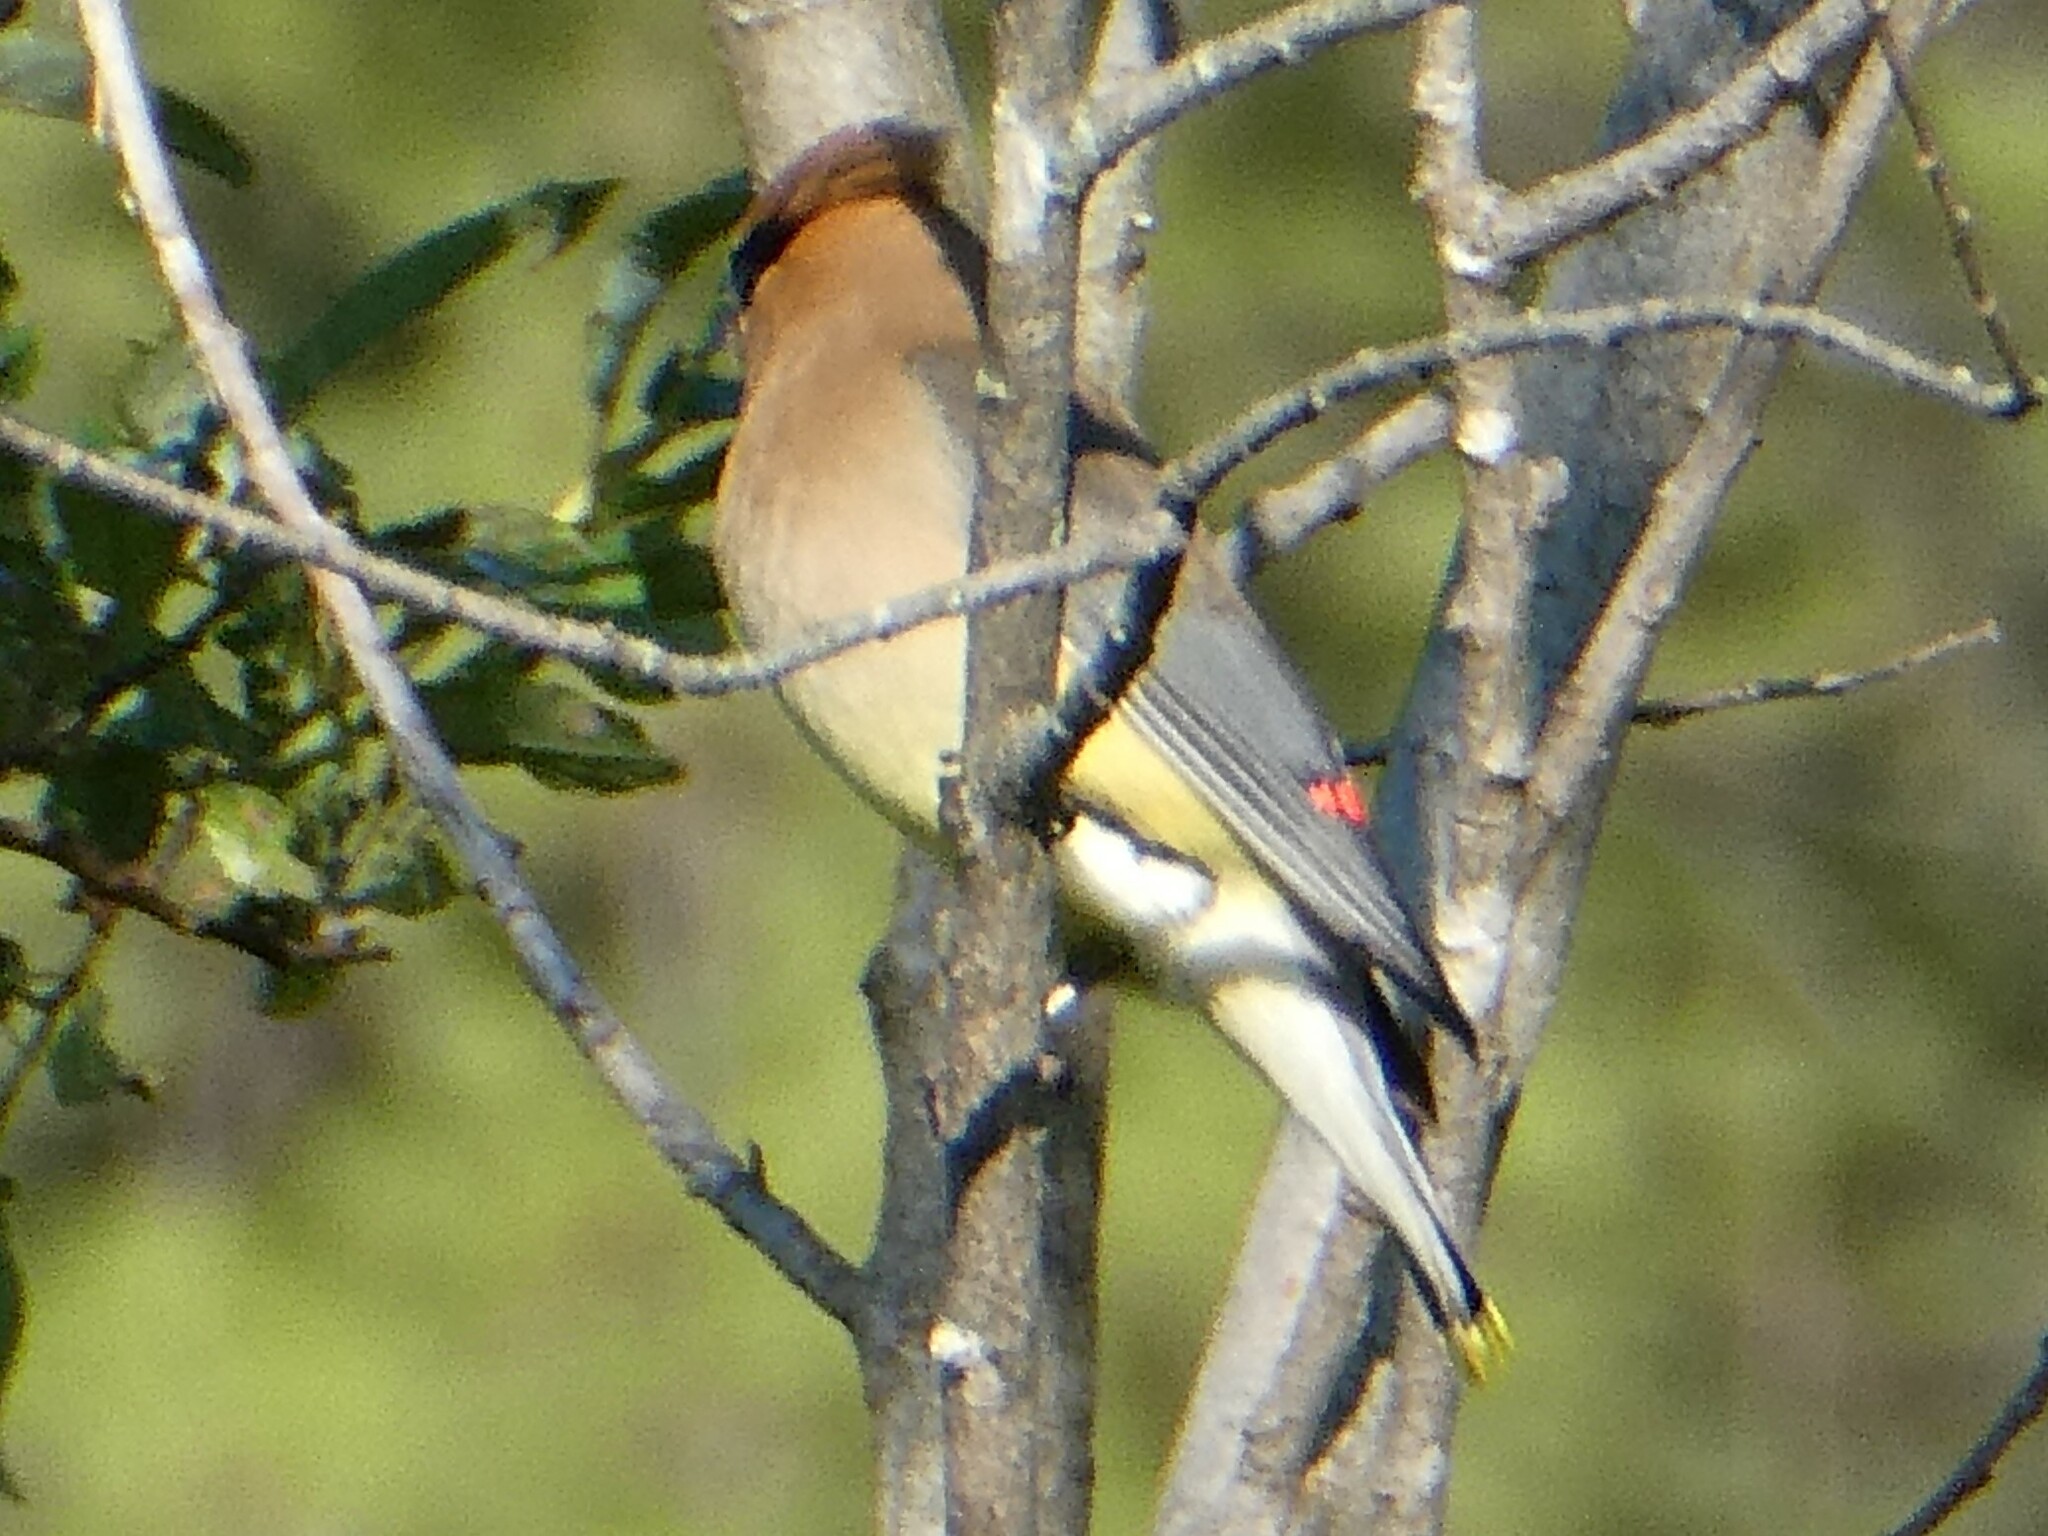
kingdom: Animalia
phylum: Chordata
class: Aves
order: Passeriformes
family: Bombycillidae
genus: Bombycilla
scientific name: Bombycilla cedrorum
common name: Cedar waxwing
